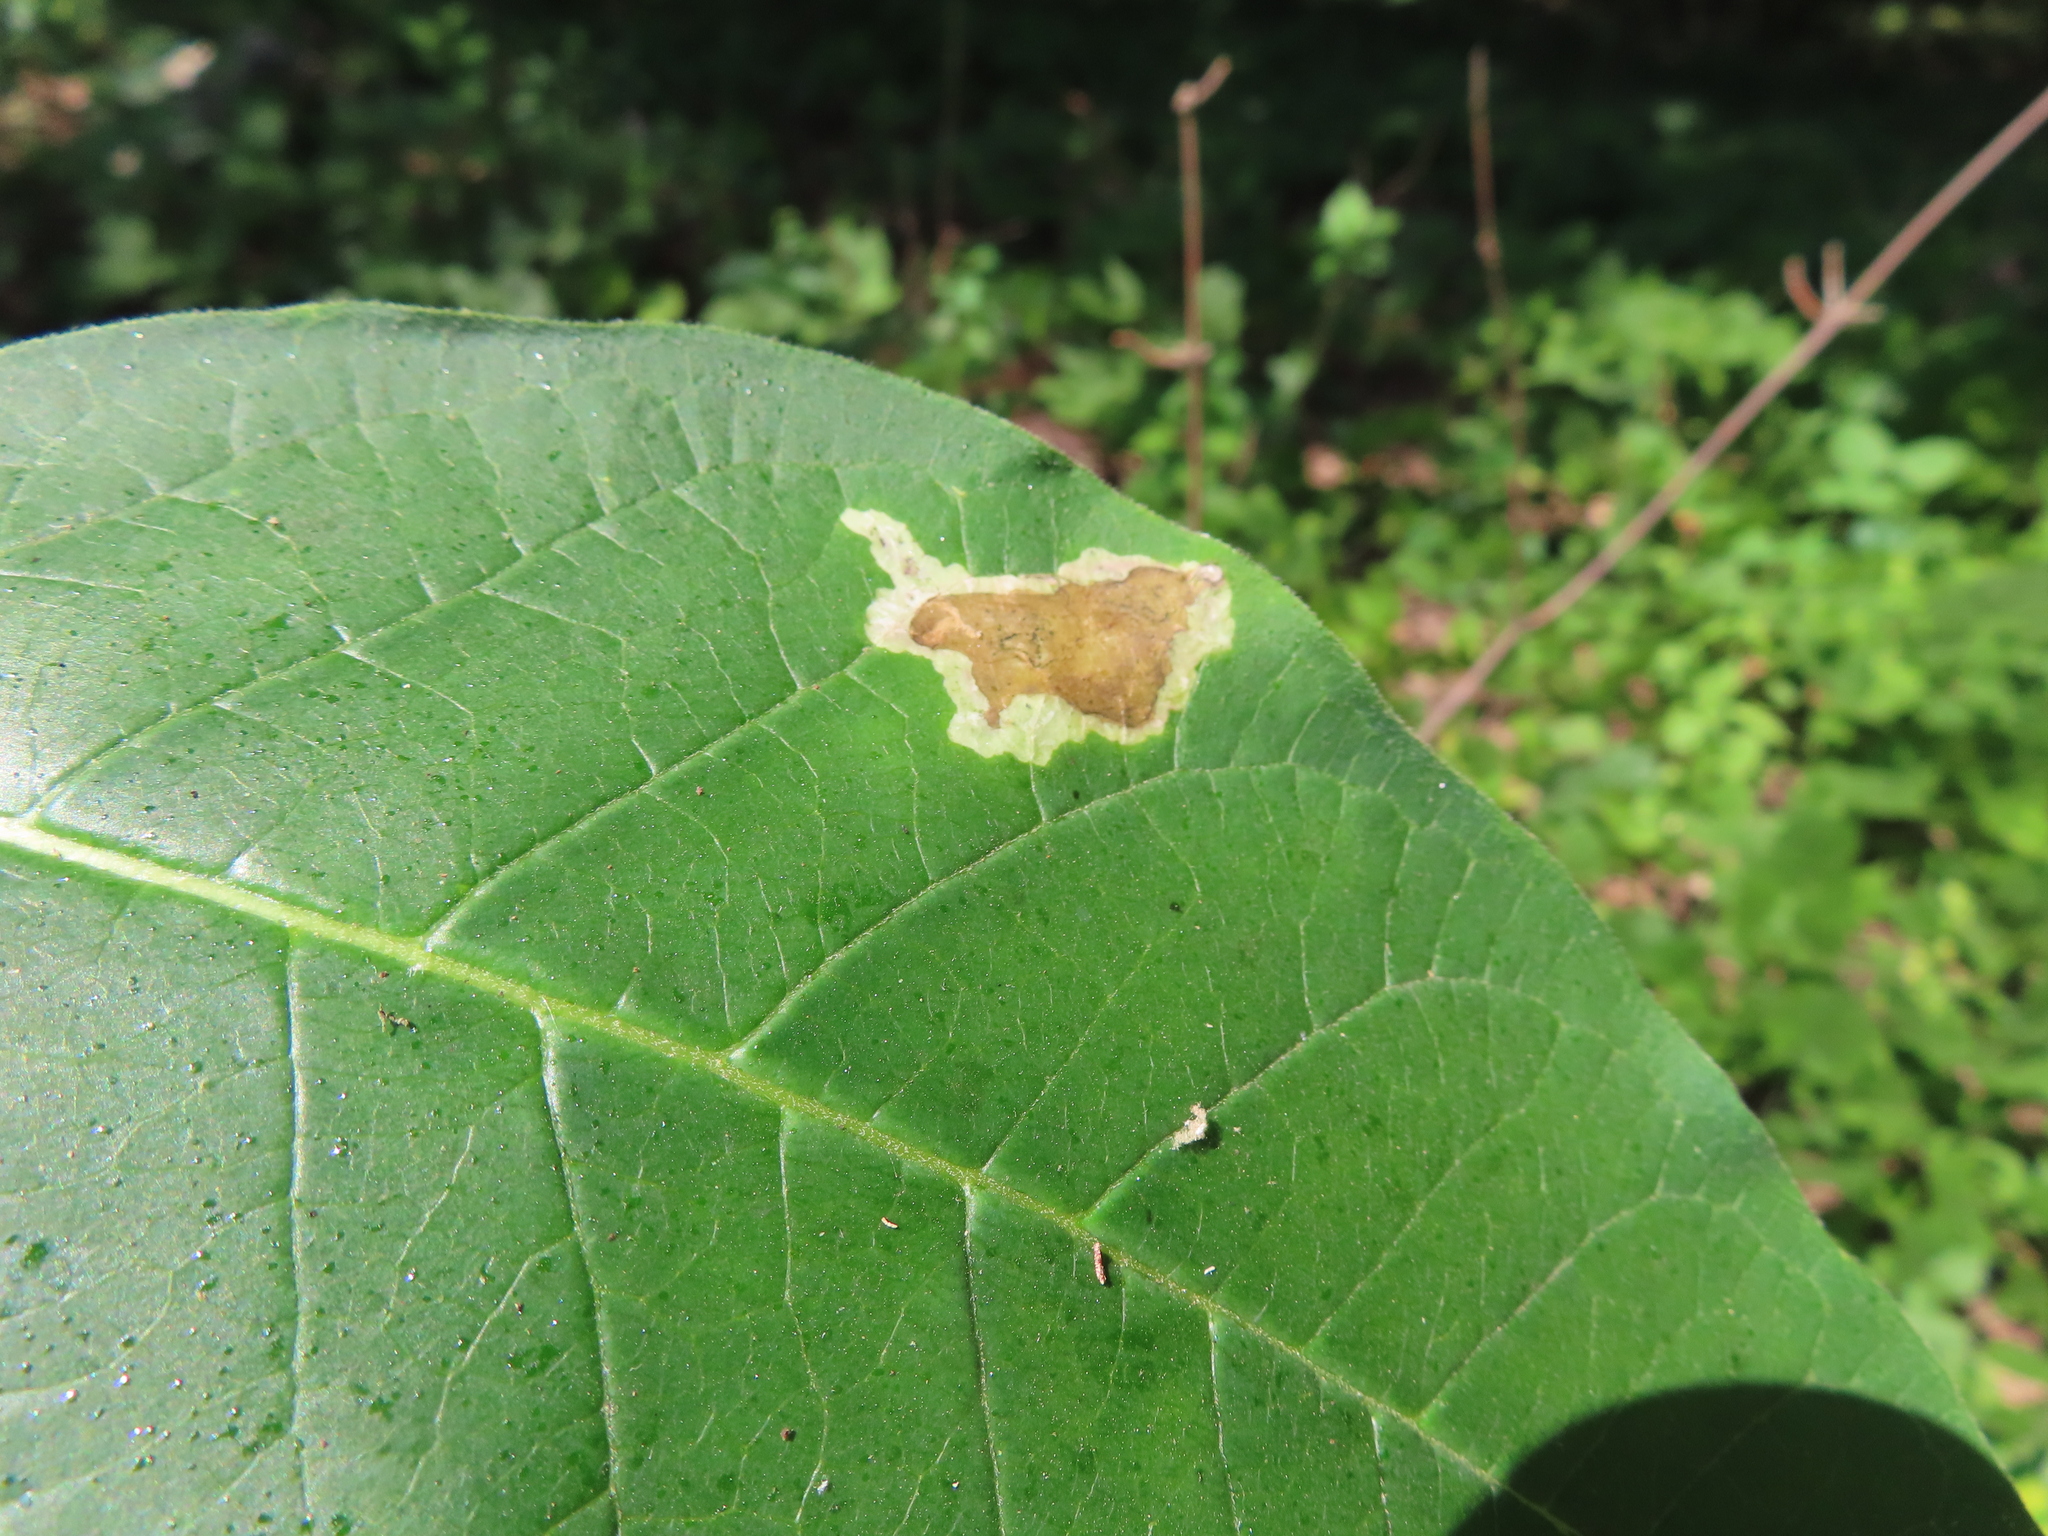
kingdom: Animalia
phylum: Arthropoda
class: Insecta
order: Diptera
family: Agromyzidae
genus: Liriomyza
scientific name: Liriomyza asclepiadis
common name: Milkweed leaf-miner fly
